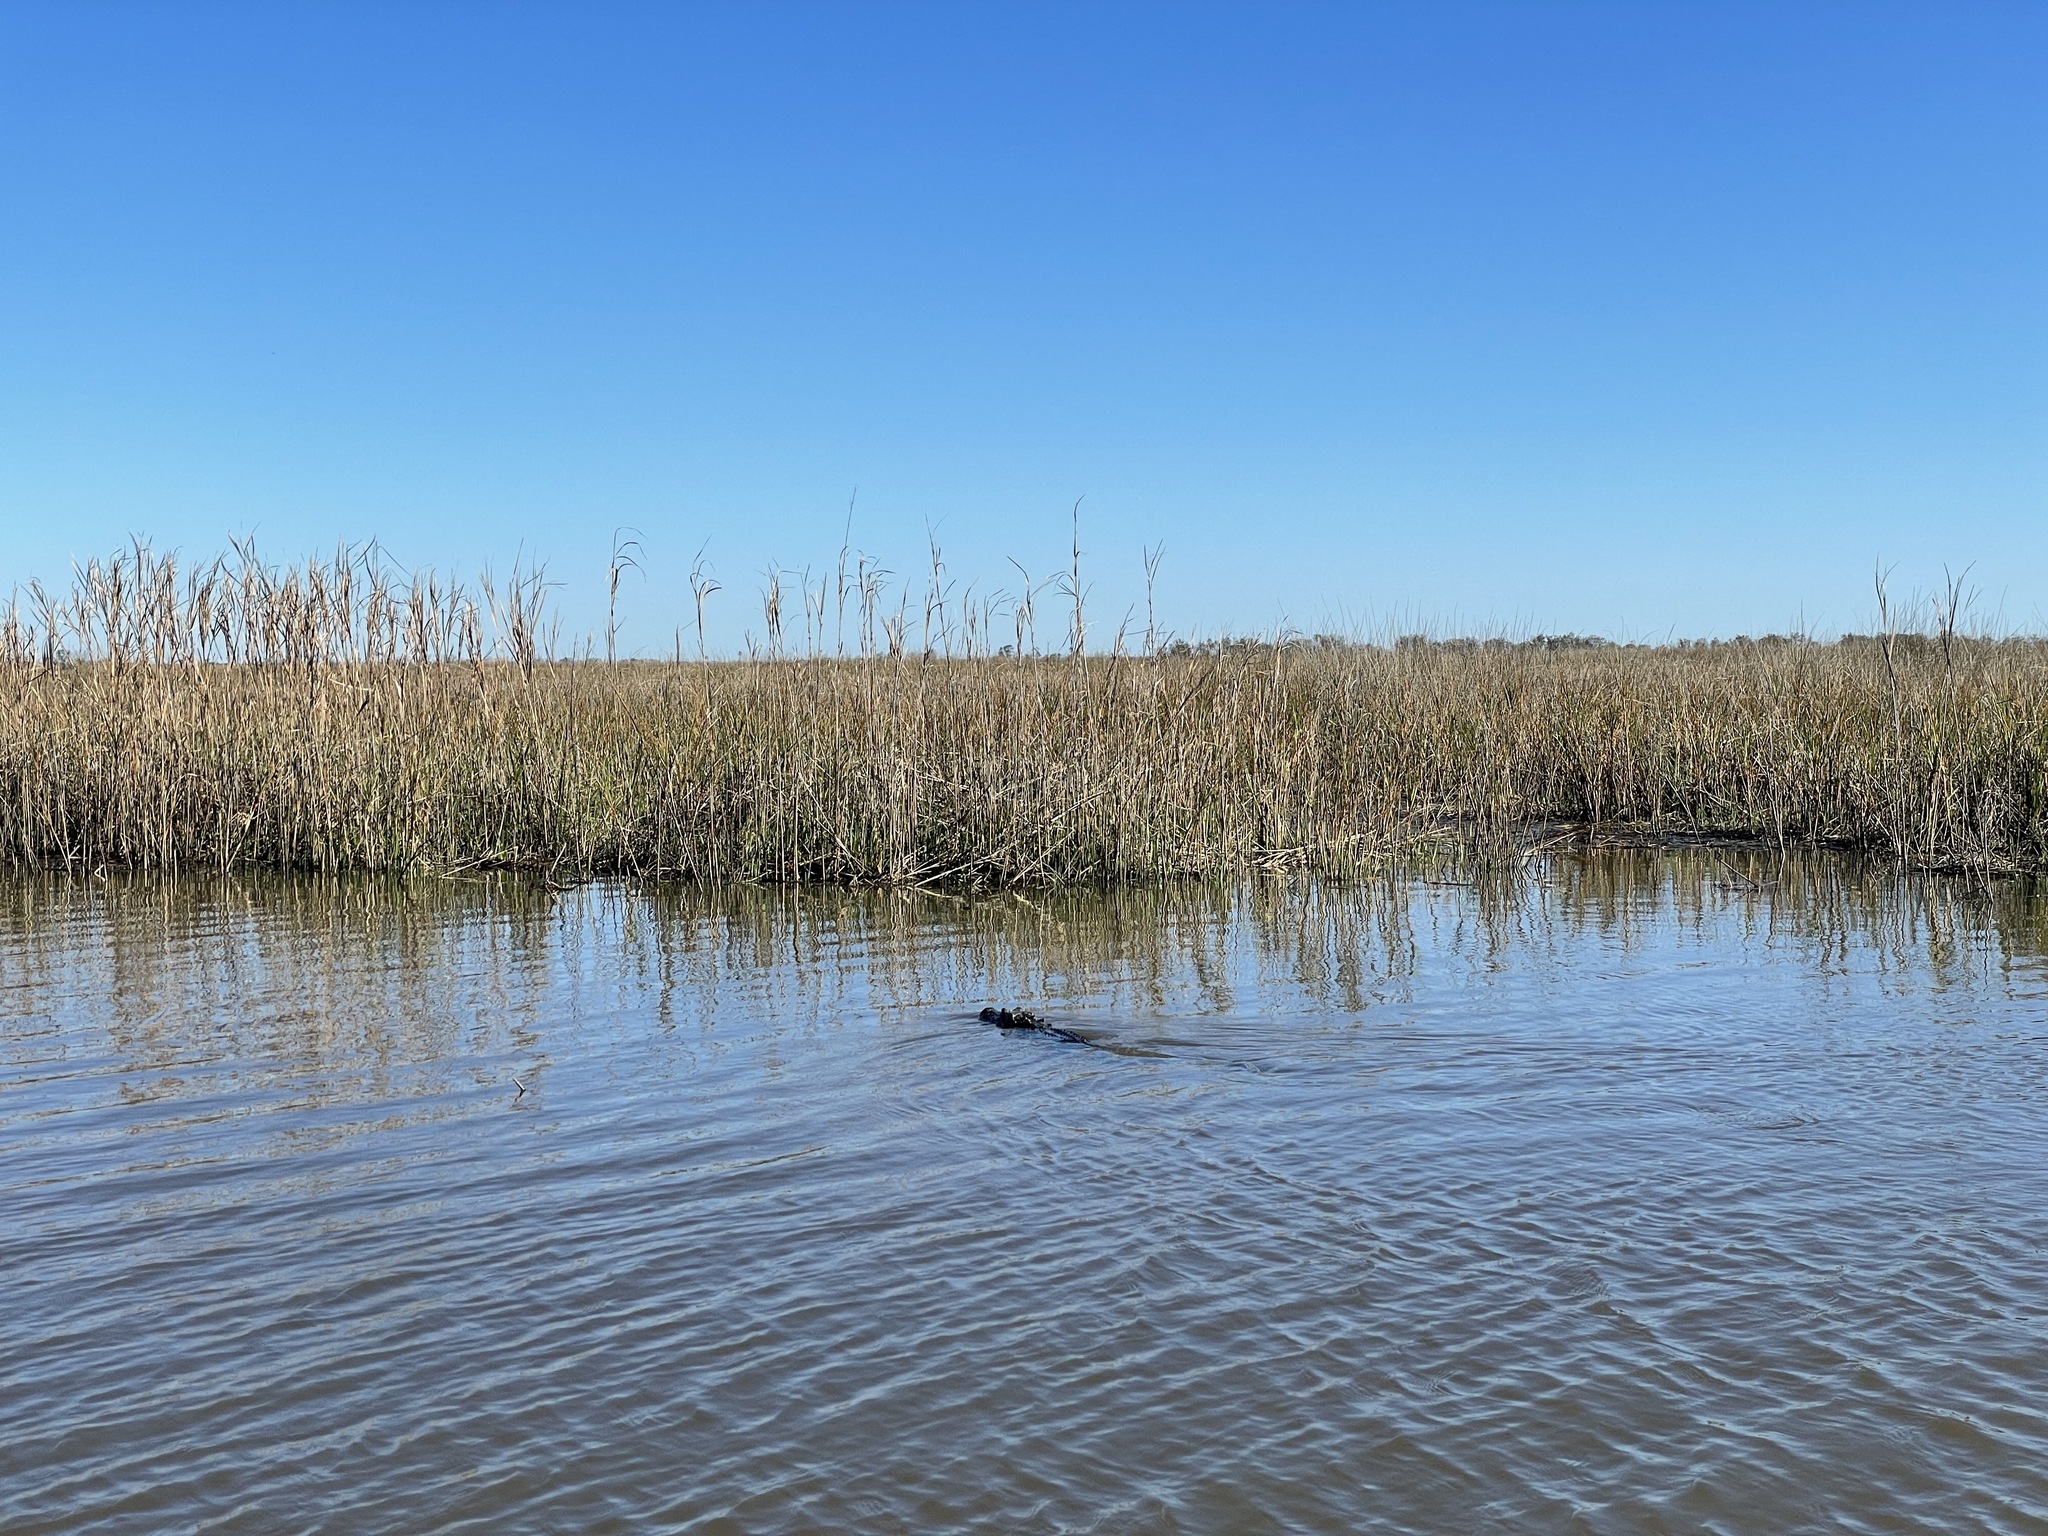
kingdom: Animalia
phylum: Chordata
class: Crocodylia
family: Alligatoridae
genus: Alligator
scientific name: Alligator mississippiensis
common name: American alligator
